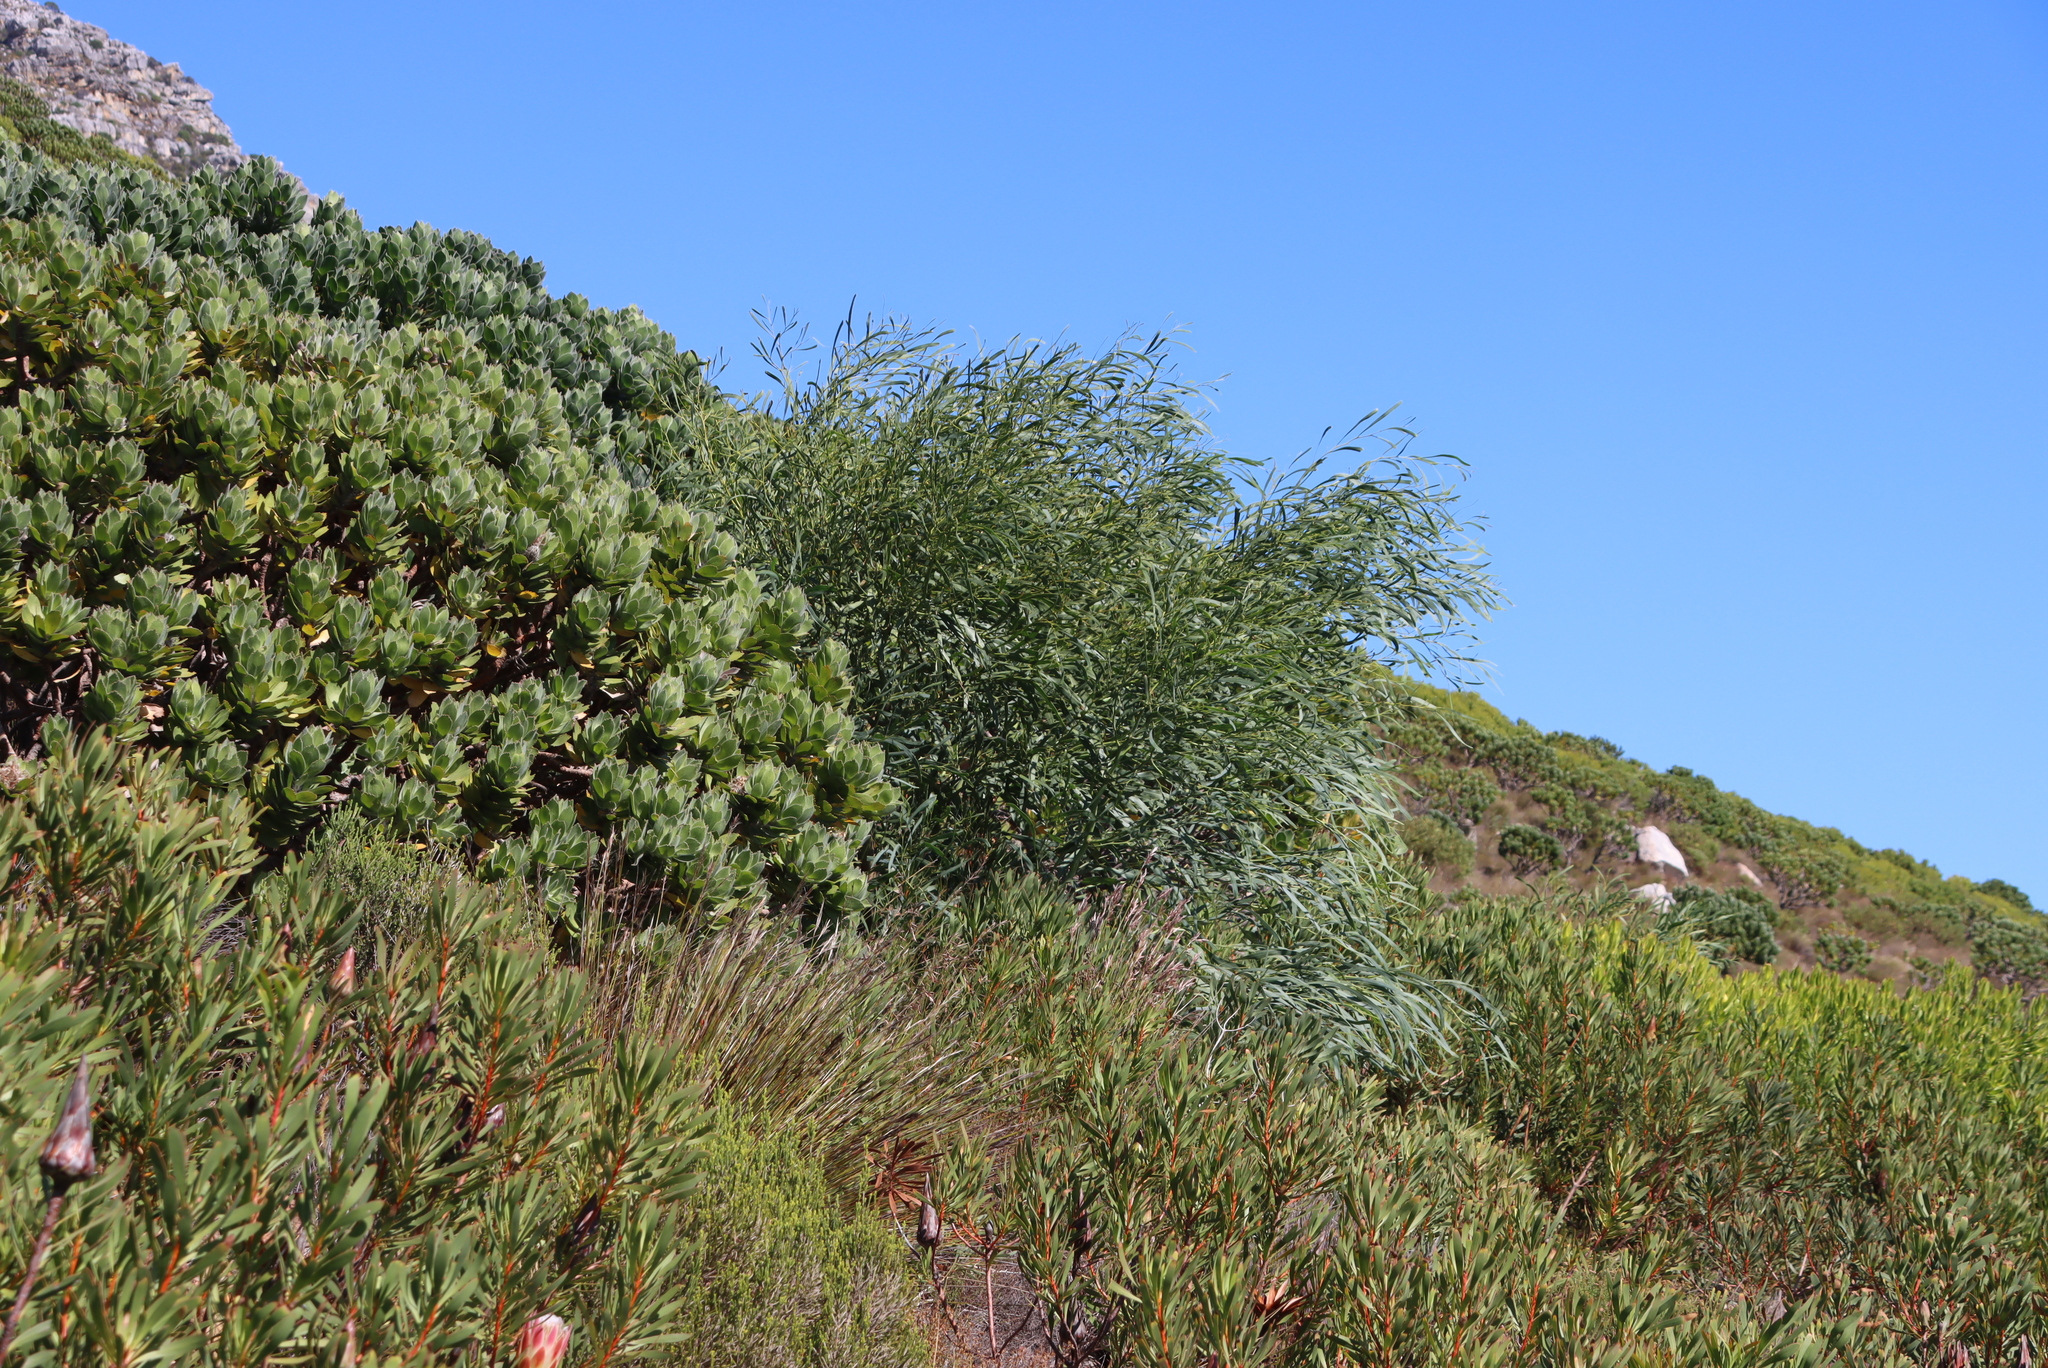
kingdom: Plantae
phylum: Tracheophyta
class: Magnoliopsida
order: Fabales
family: Fabaceae
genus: Acacia
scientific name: Acacia saligna
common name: Orange wattle
